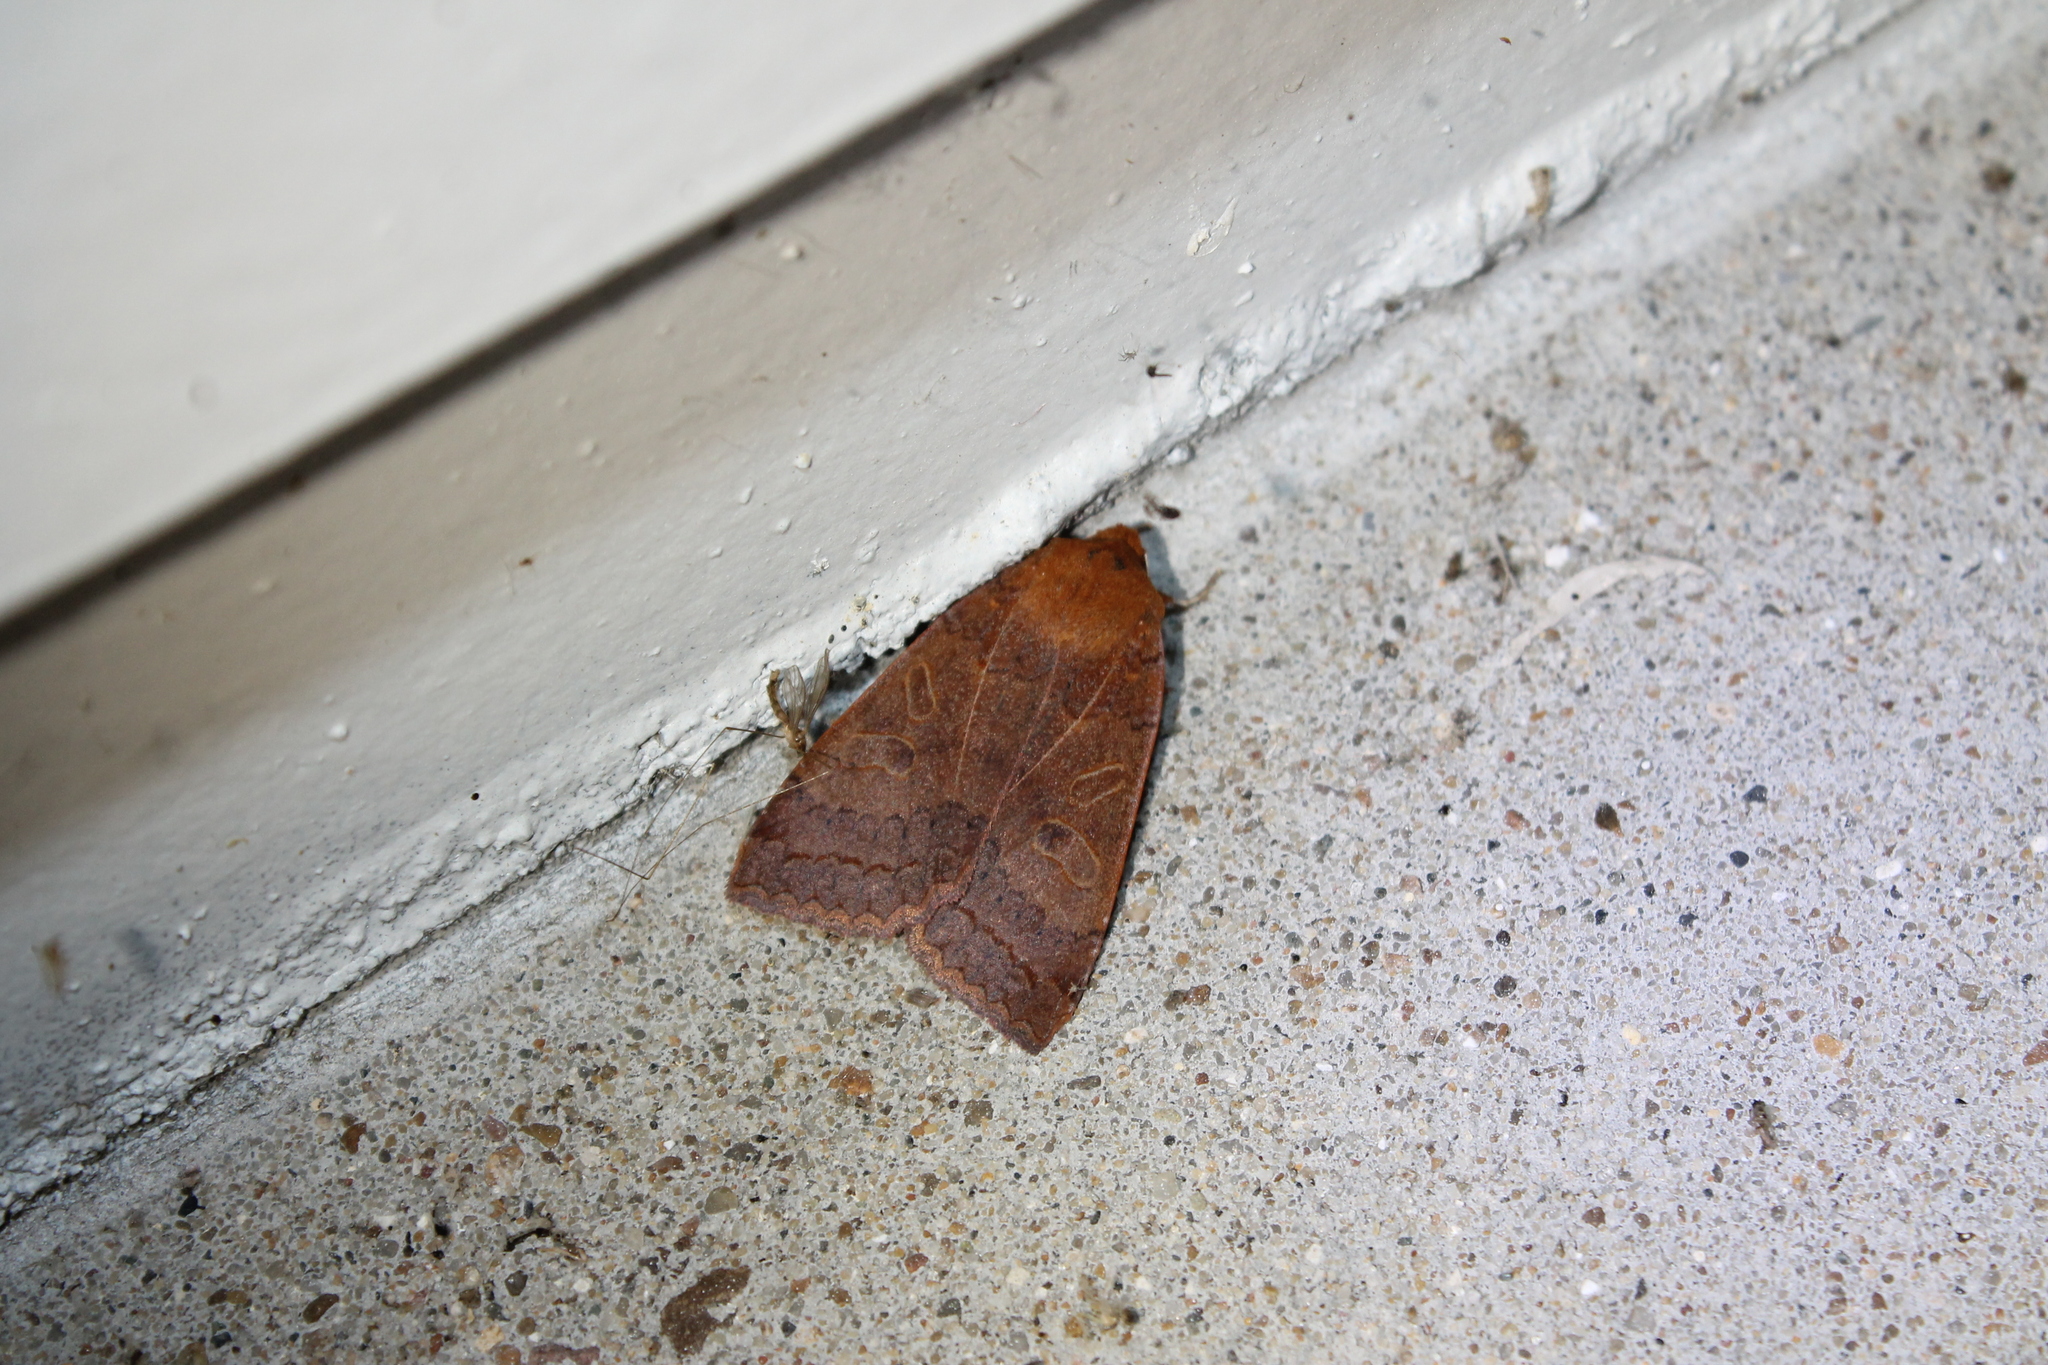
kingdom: Animalia
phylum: Arthropoda
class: Insecta
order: Lepidoptera
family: Noctuidae
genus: Metaxaglaea
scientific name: Metaxaglaea viatica
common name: Roadside sallow
